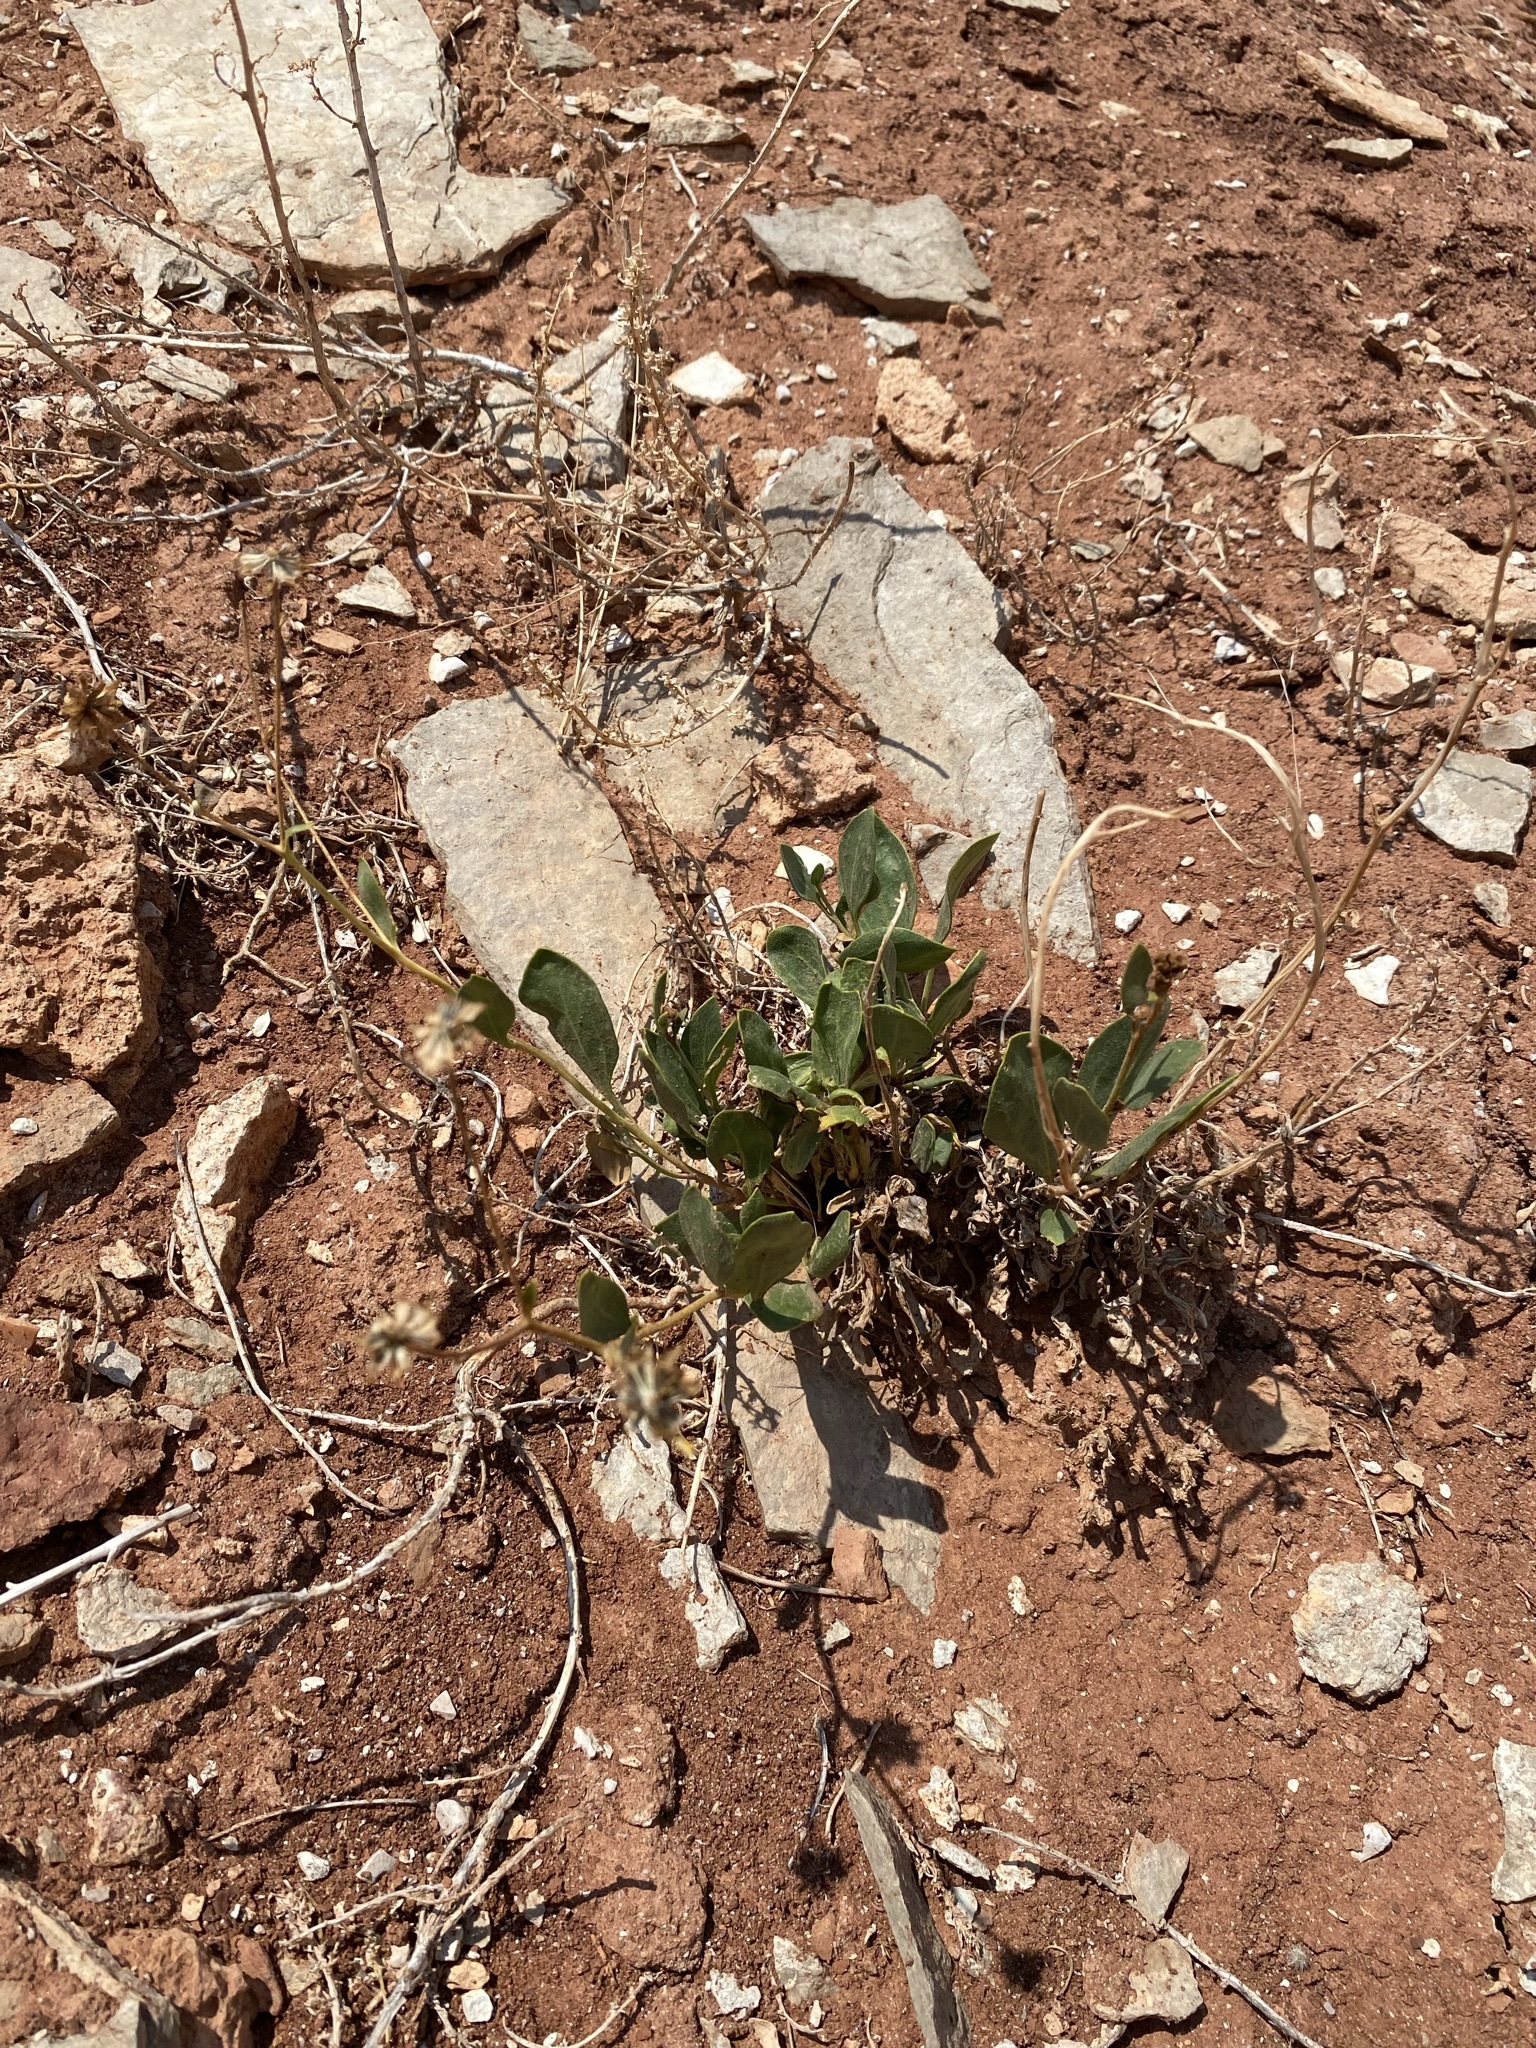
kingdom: Plantae
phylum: Tracheophyta
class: Magnoliopsida
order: Asterales
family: Asteraceae
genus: Platyschkuhria
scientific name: Platyschkuhria integrifolia
